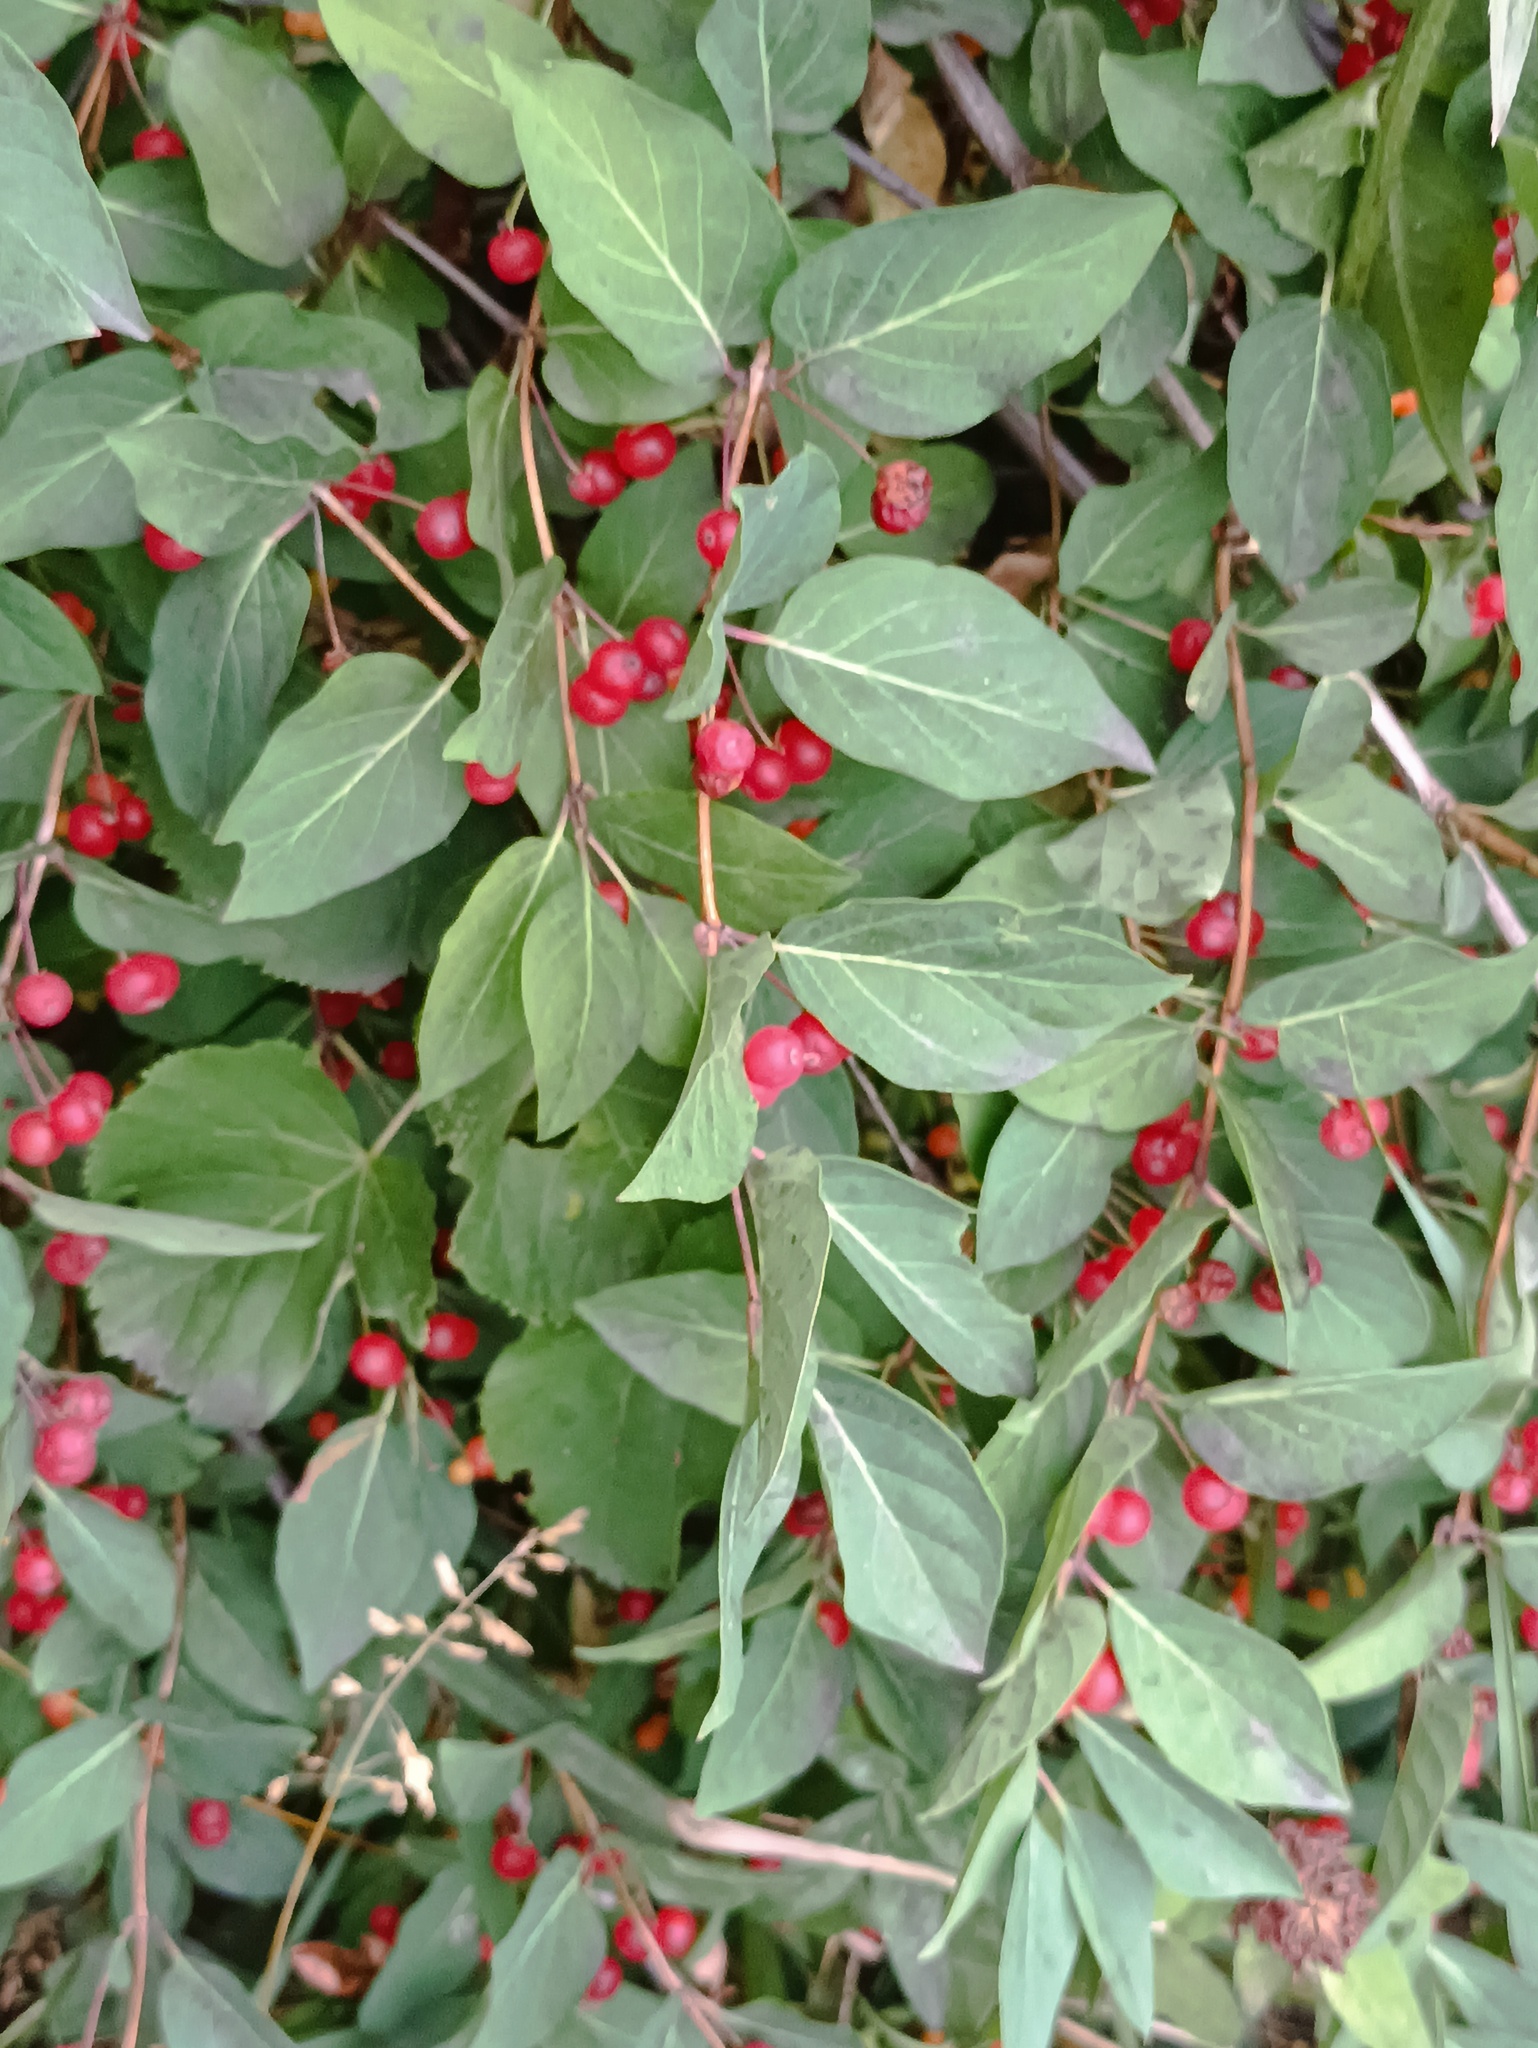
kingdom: Plantae
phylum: Tracheophyta
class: Magnoliopsida
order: Dipsacales
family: Caprifoliaceae
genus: Lonicera
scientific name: Lonicera tatarica
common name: Tatarian honeysuckle
